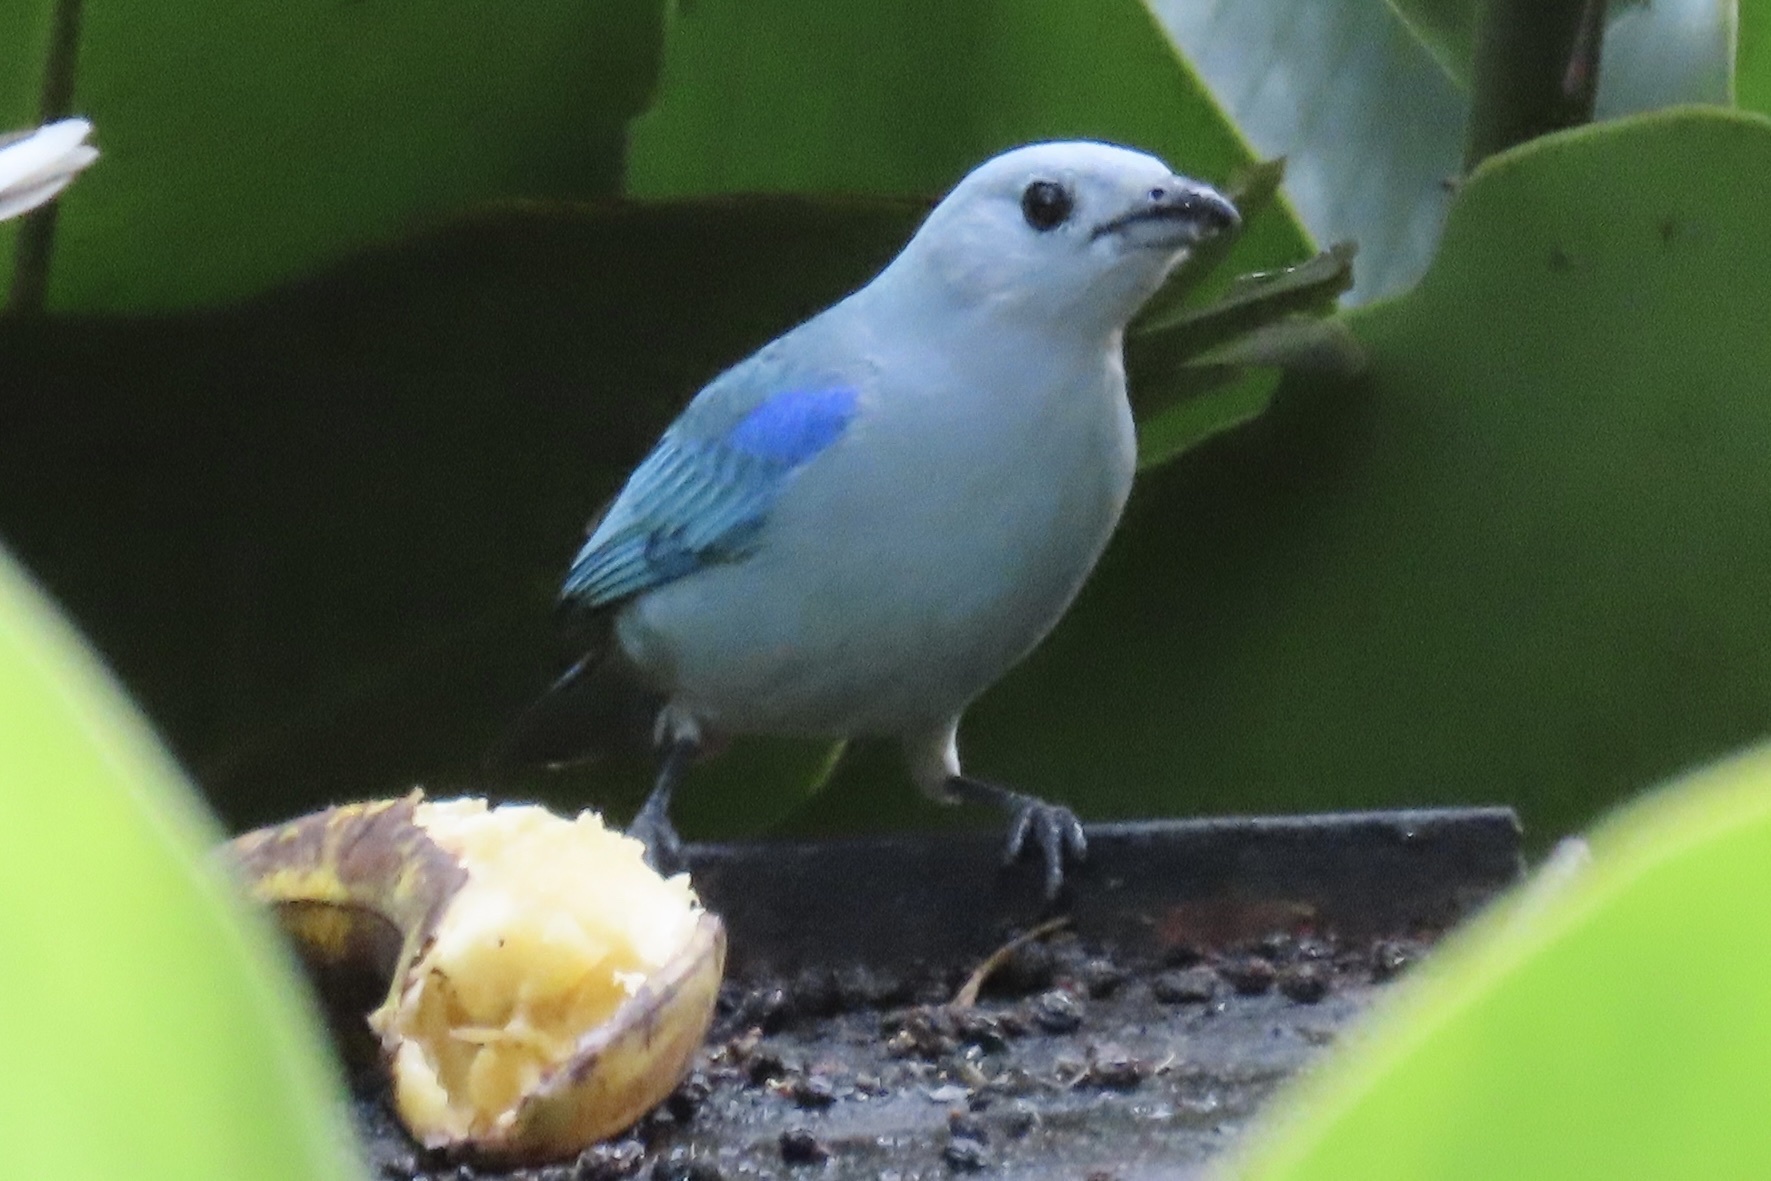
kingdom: Animalia
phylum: Chordata
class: Aves
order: Passeriformes
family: Thraupidae
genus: Thraupis
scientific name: Thraupis episcopus
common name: Blue-grey tanager
